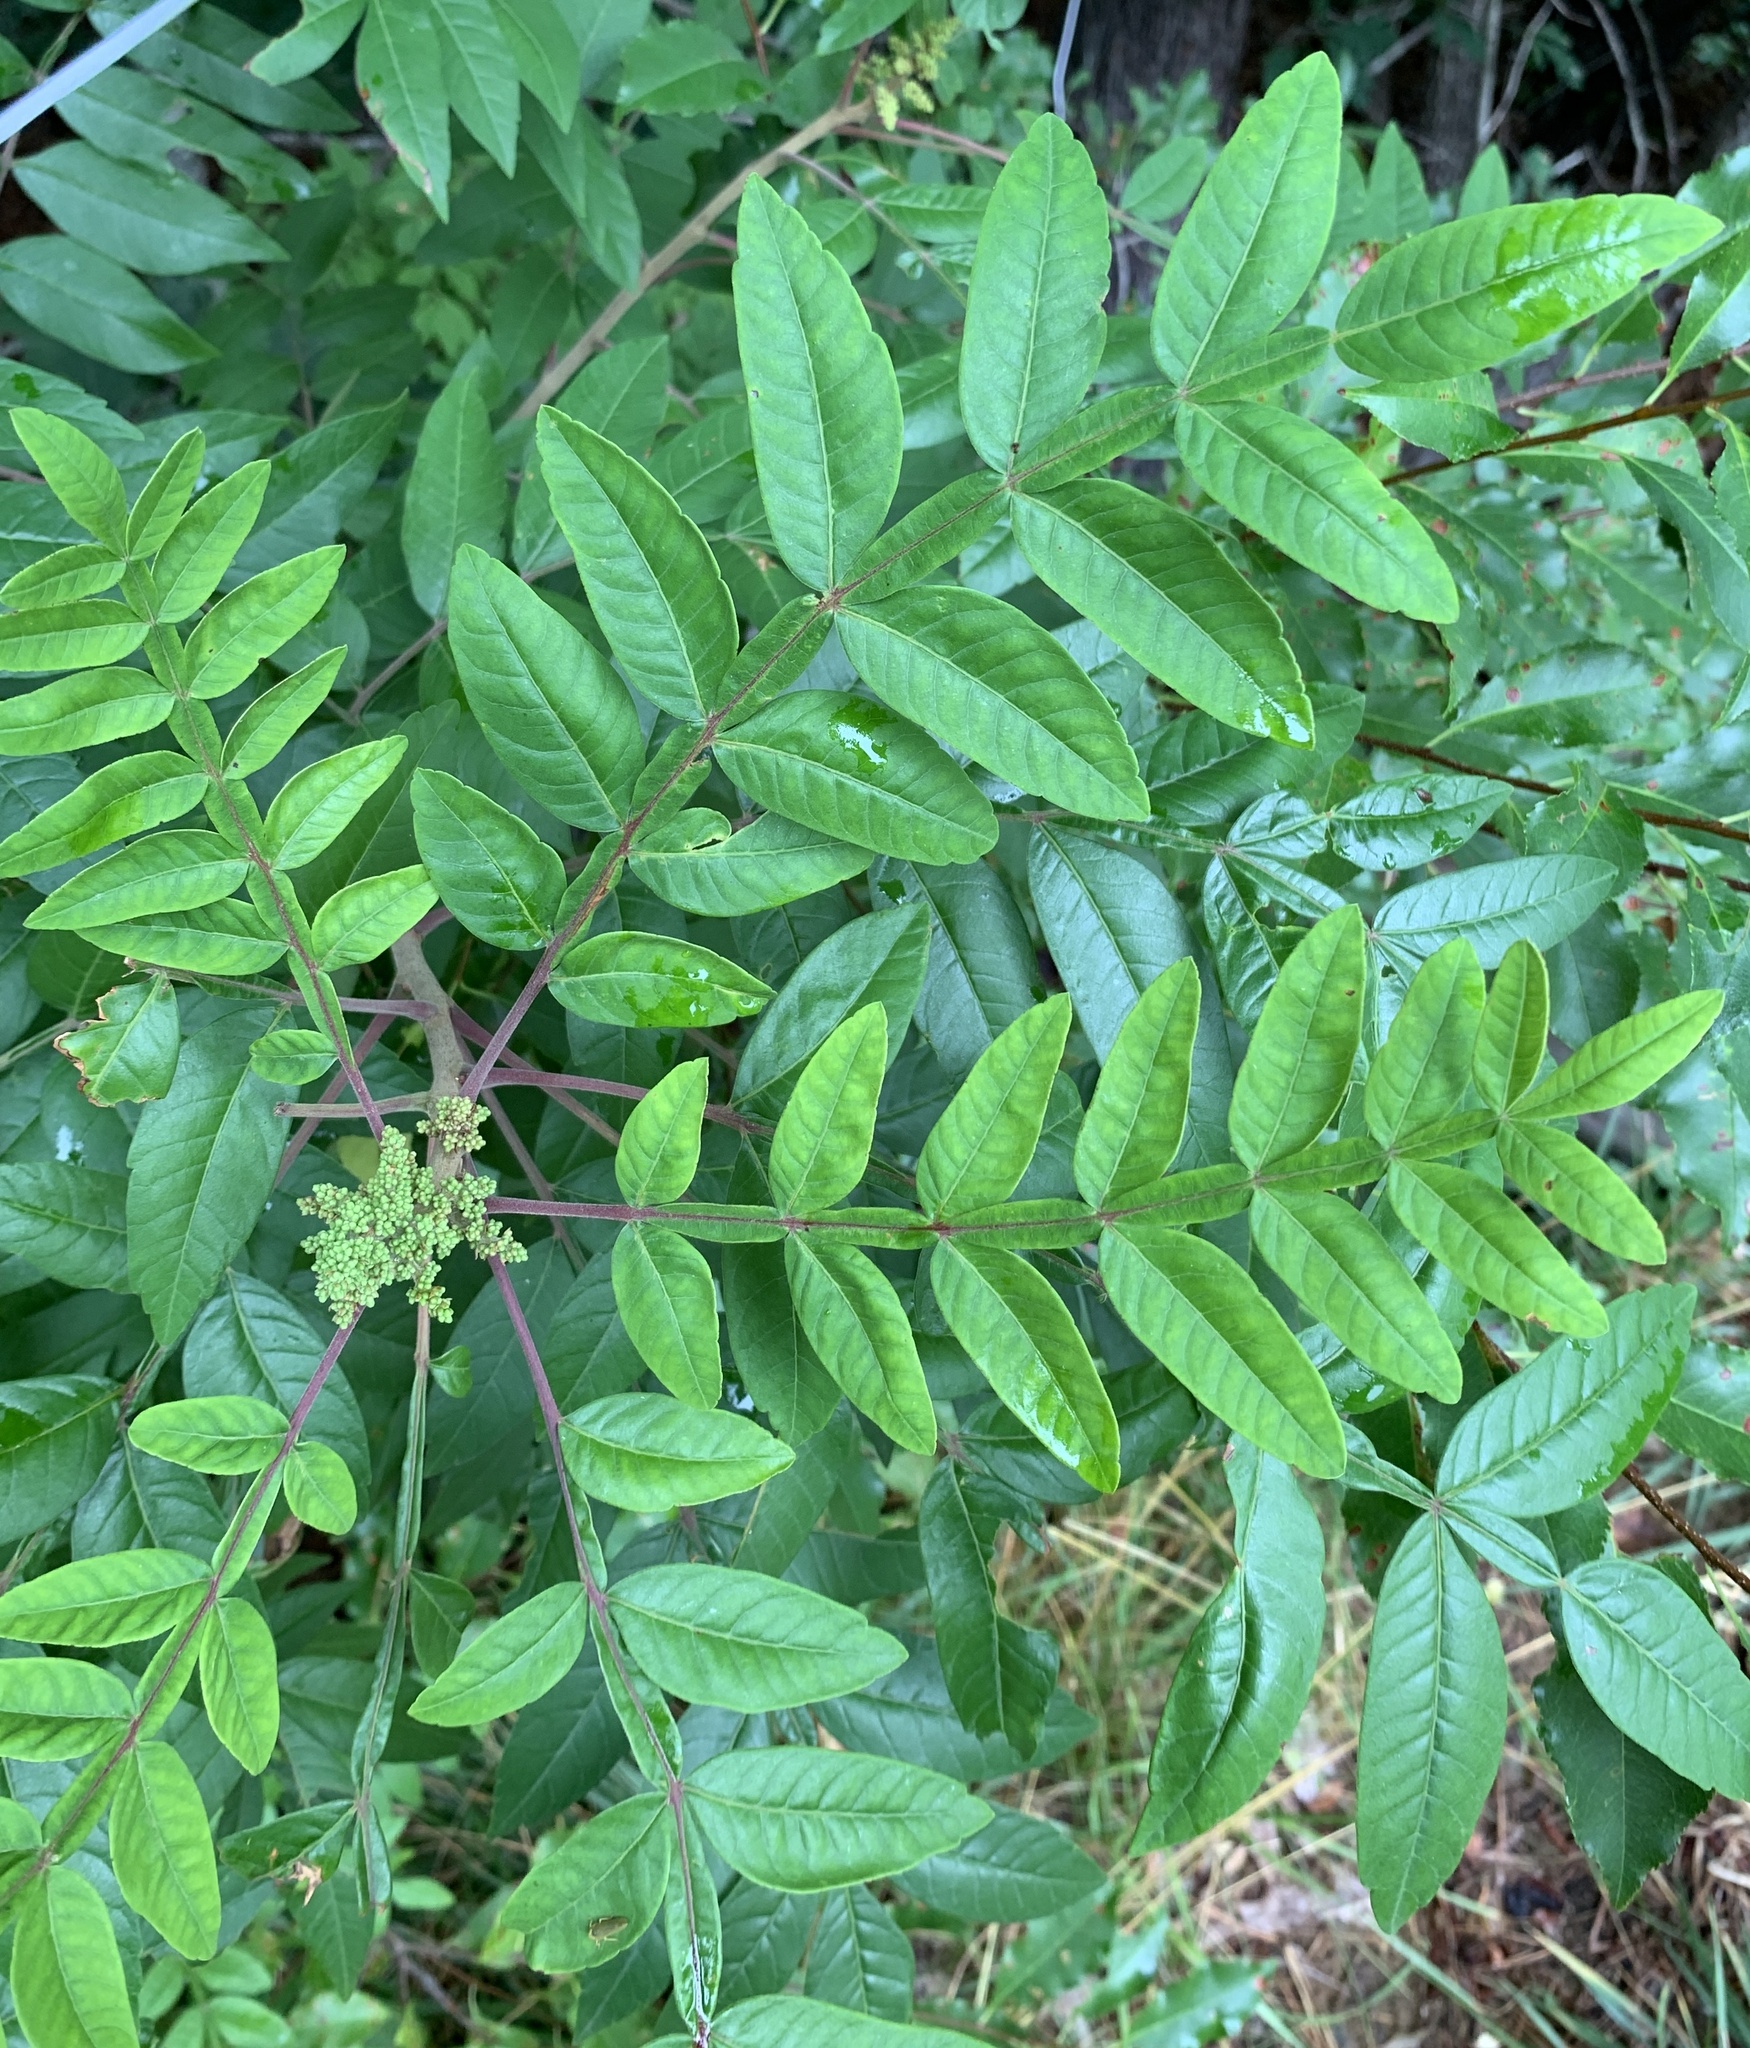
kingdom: Plantae
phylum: Tracheophyta
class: Magnoliopsida
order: Sapindales
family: Anacardiaceae
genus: Rhus
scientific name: Rhus copallina
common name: Shining sumac
